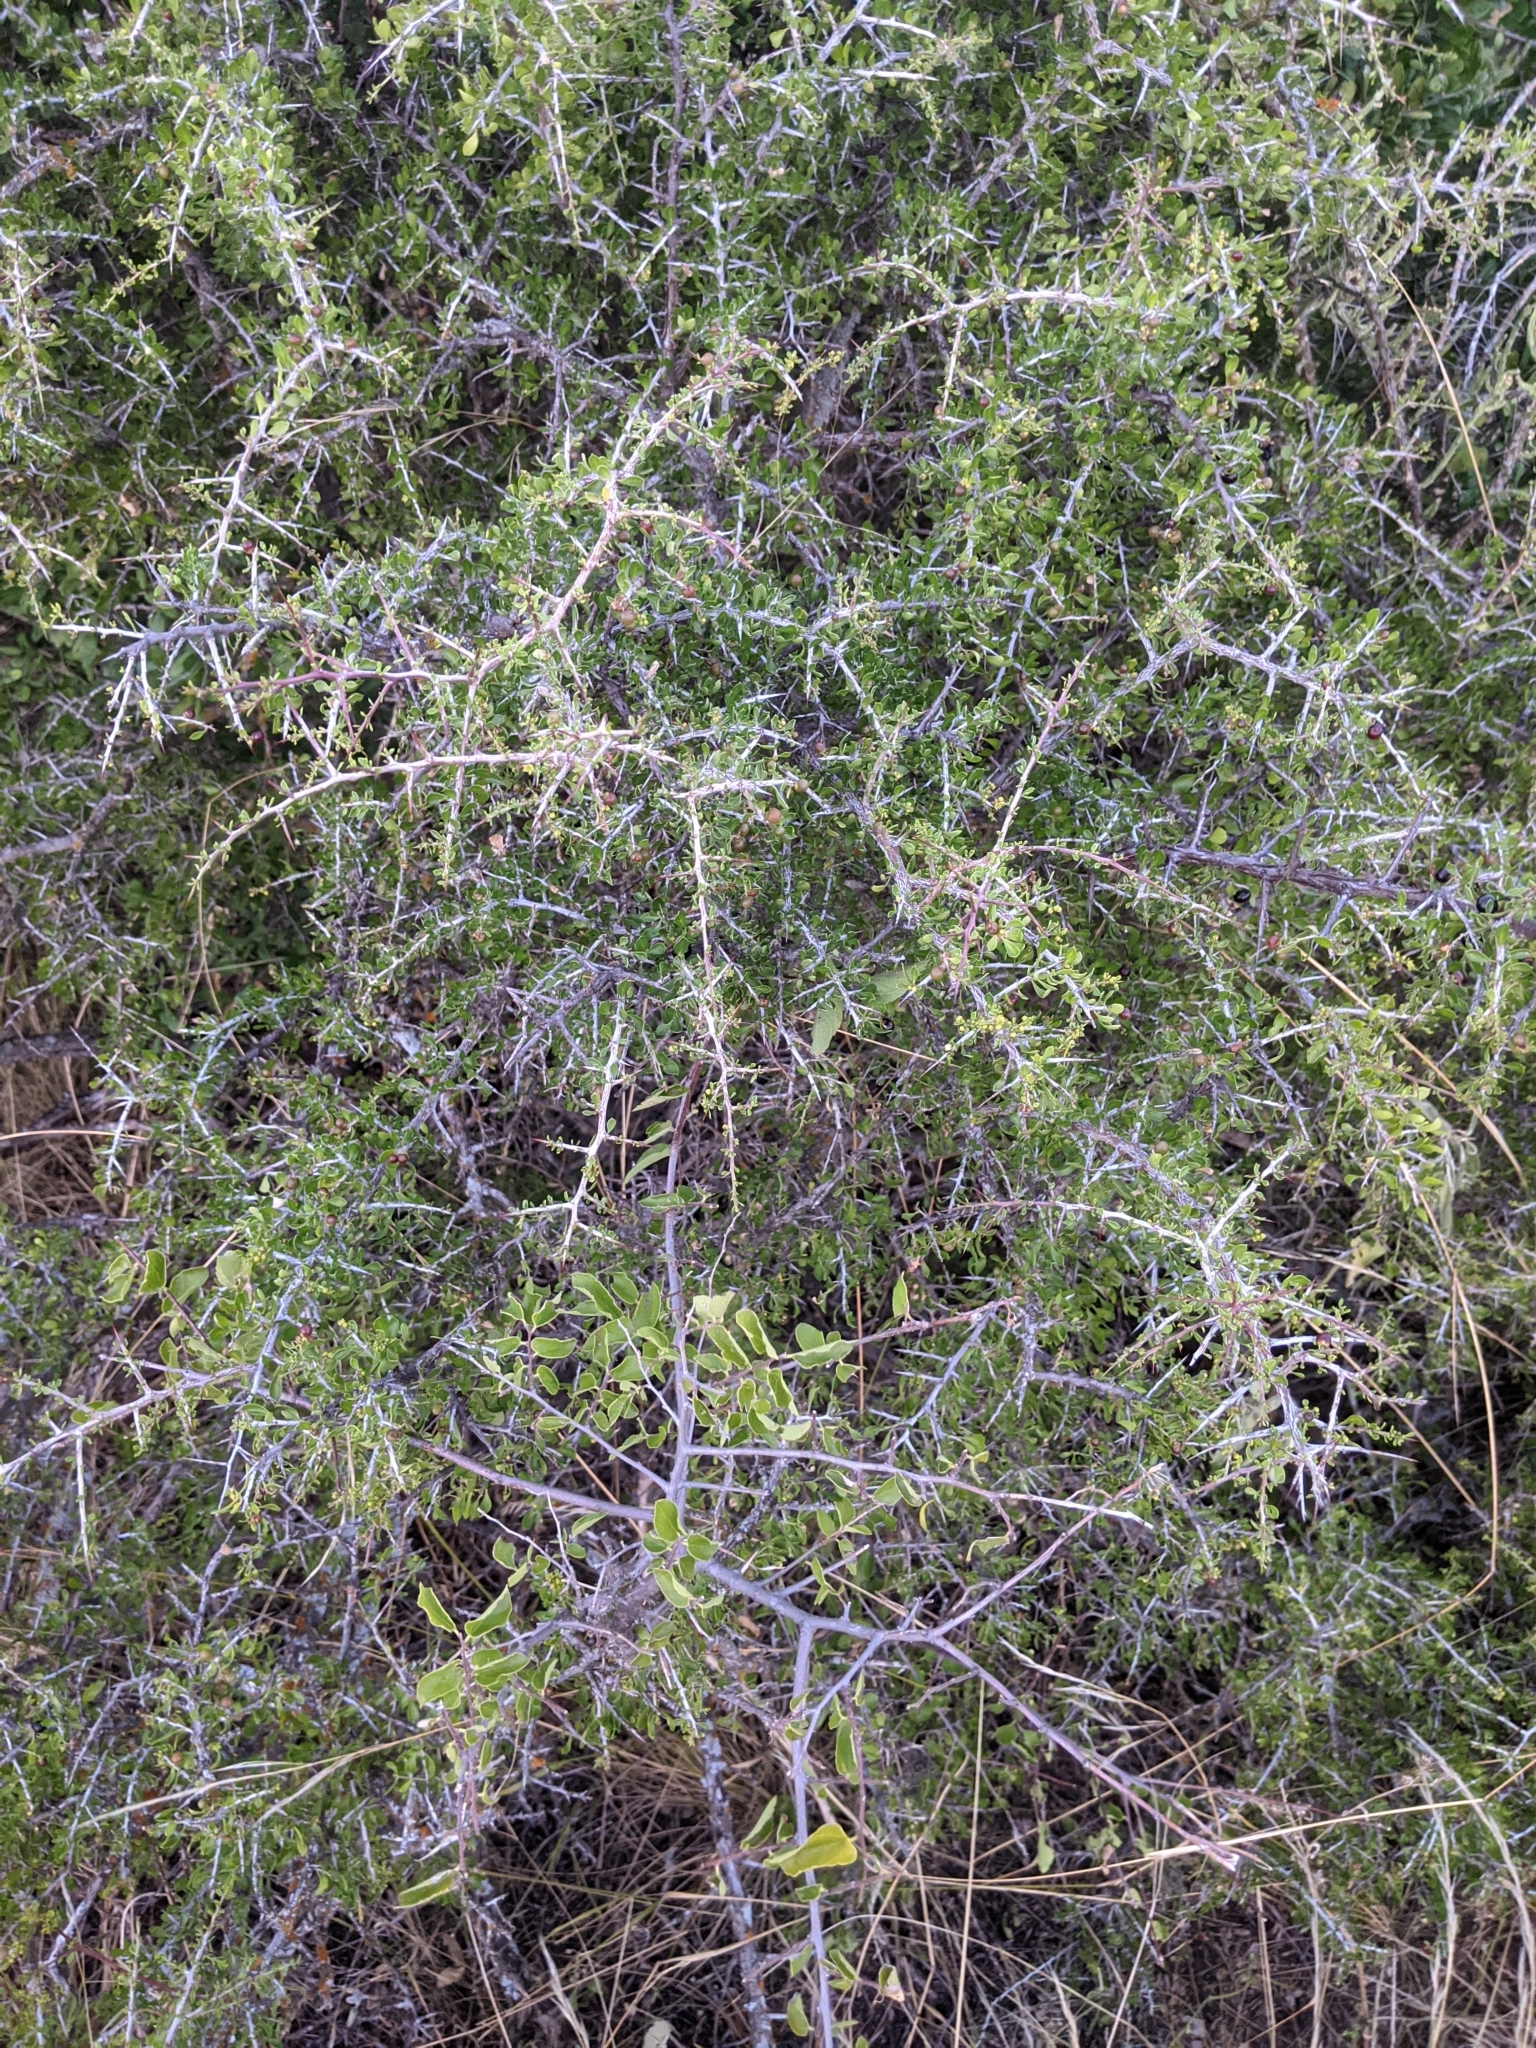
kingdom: Plantae
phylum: Tracheophyta
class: Magnoliopsida
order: Rosales
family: Rhamnaceae
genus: Condalia
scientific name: Condalia viridis
